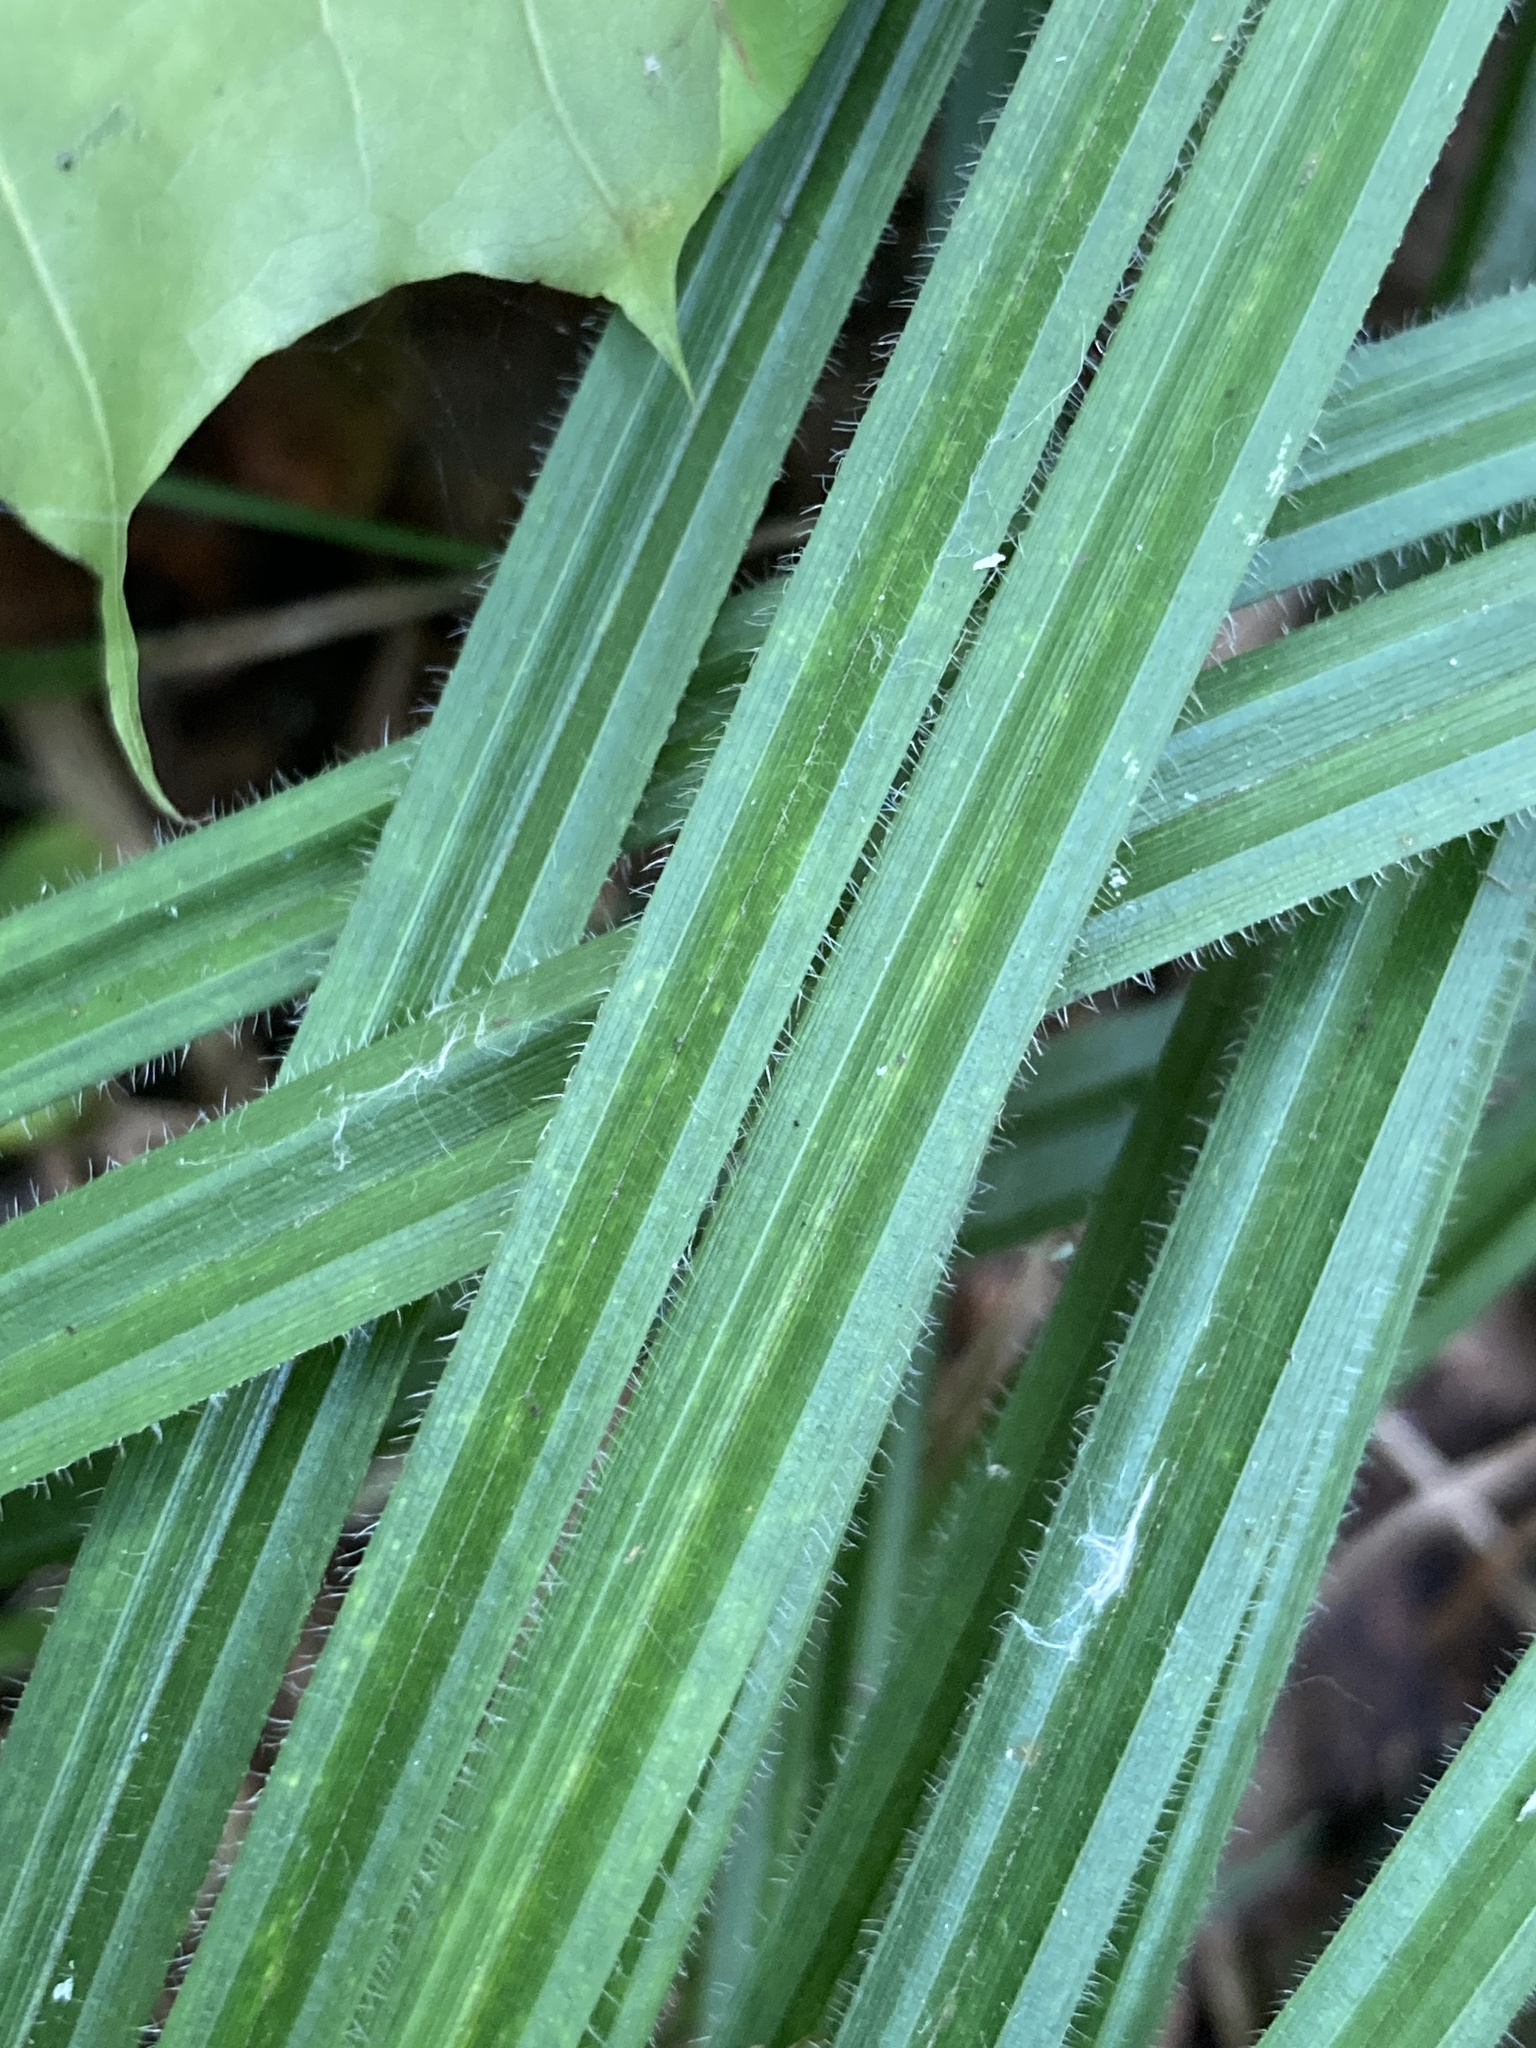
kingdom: Plantae
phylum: Tracheophyta
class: Liliopsida
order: Poales
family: Cyperaceae
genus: Carex
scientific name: Carex pilosa
